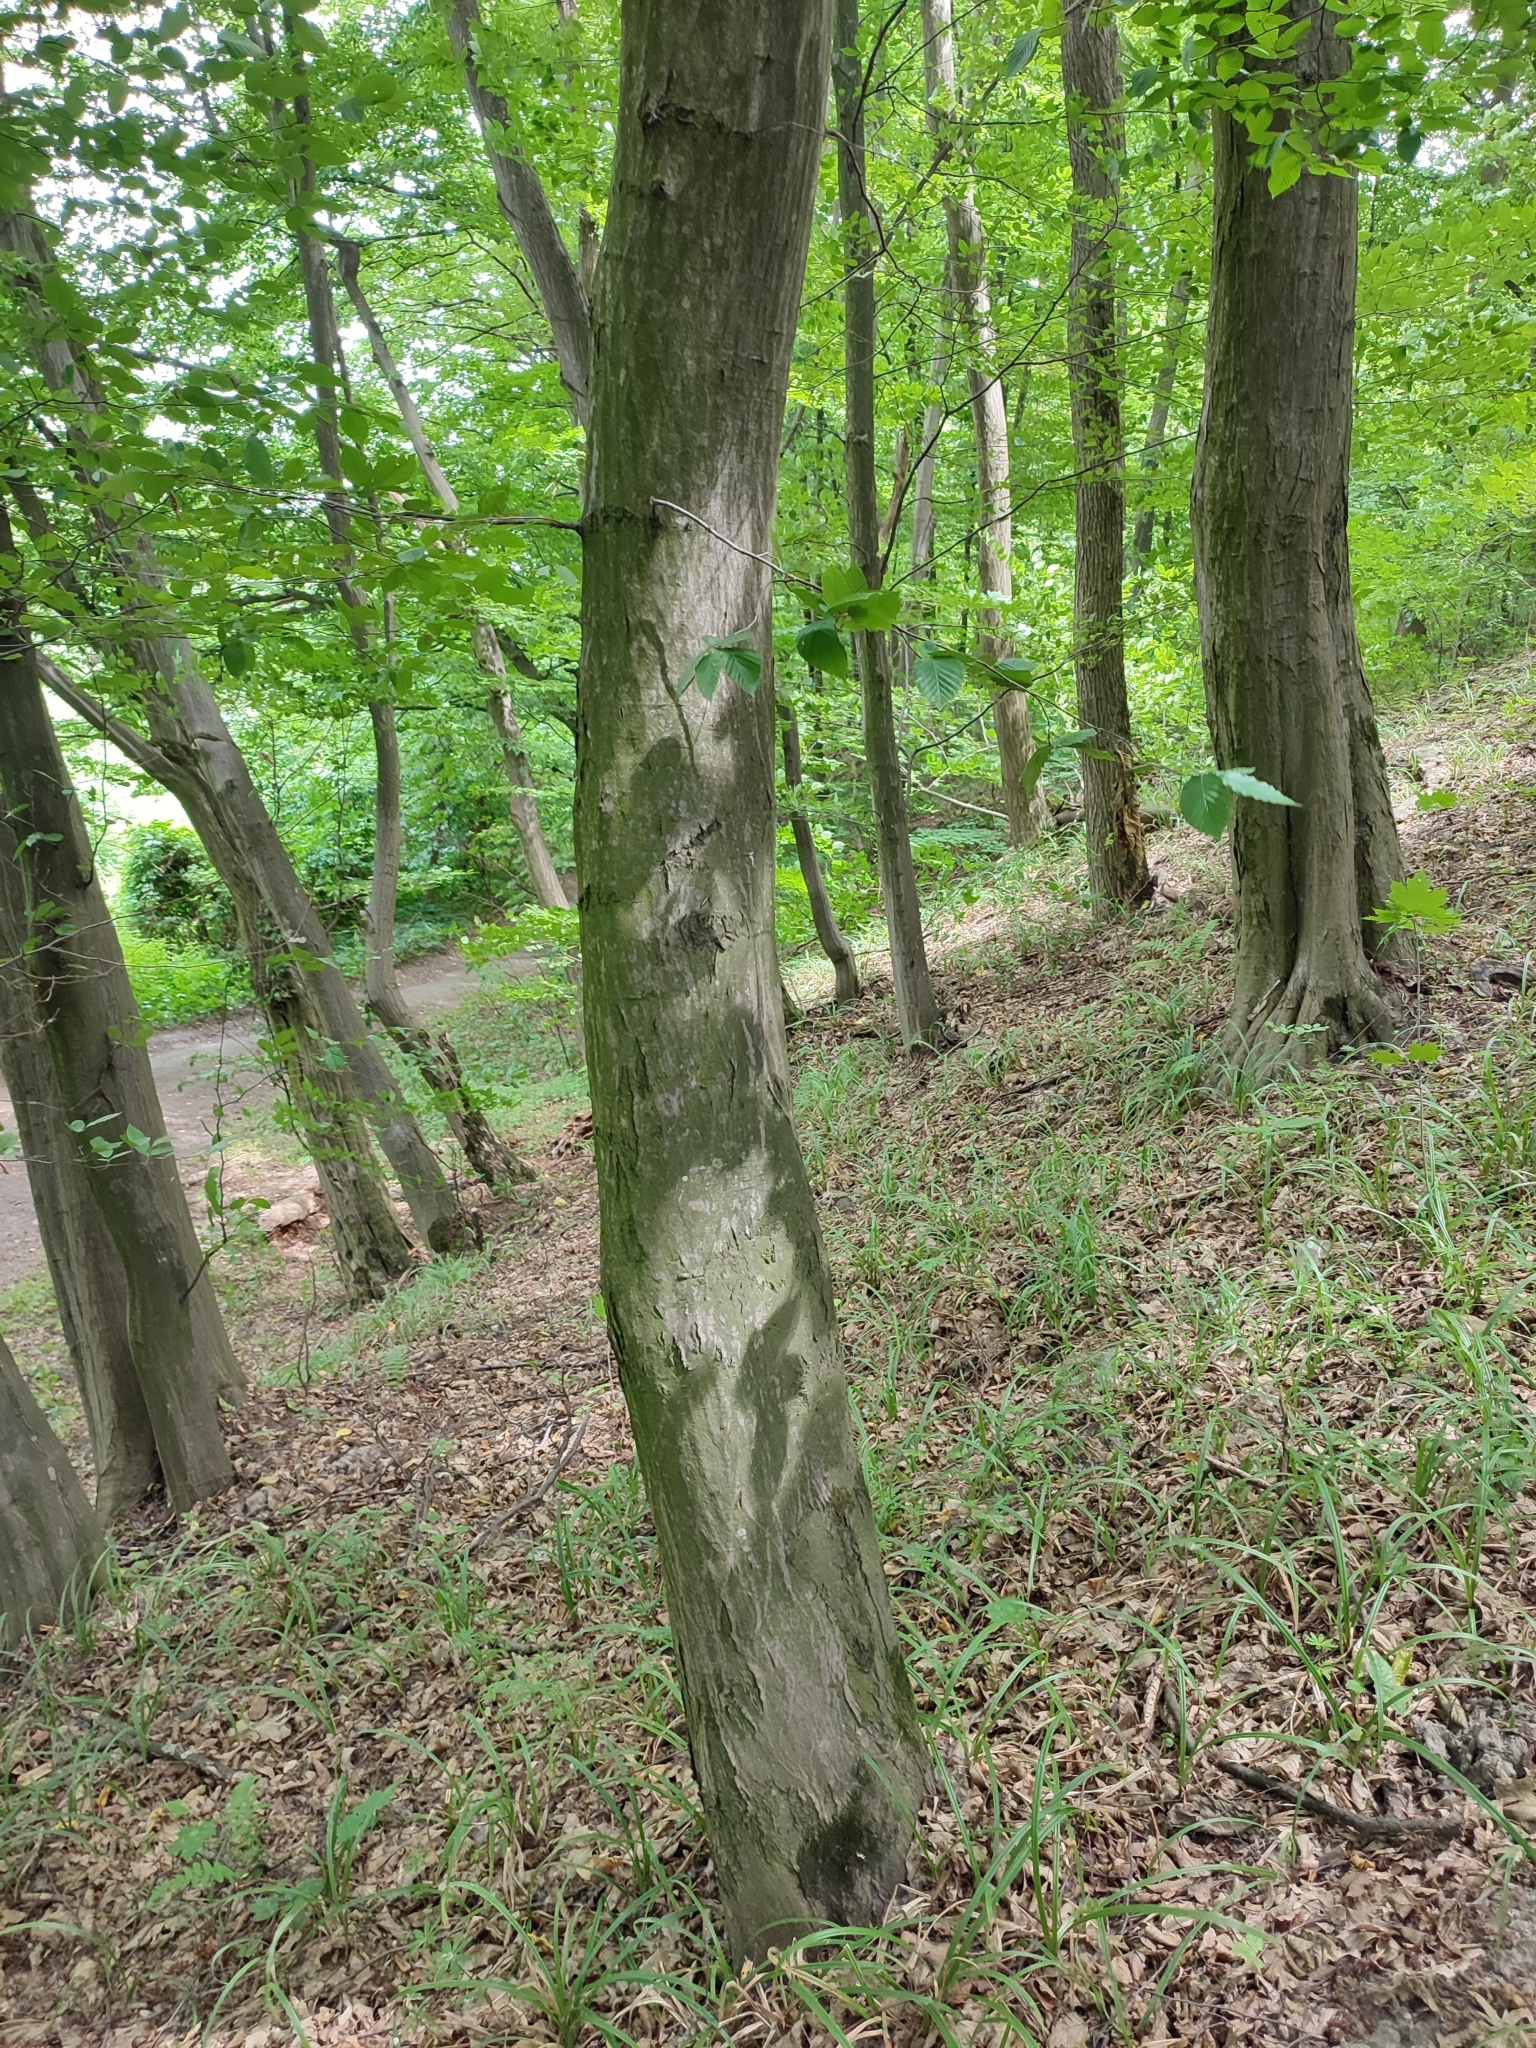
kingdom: Plantae
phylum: Tracheophyta
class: Magnoliopsida
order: Fagales
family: Betulaceae
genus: Carpinus
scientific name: Carpinus betulus
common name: Hornbeam
